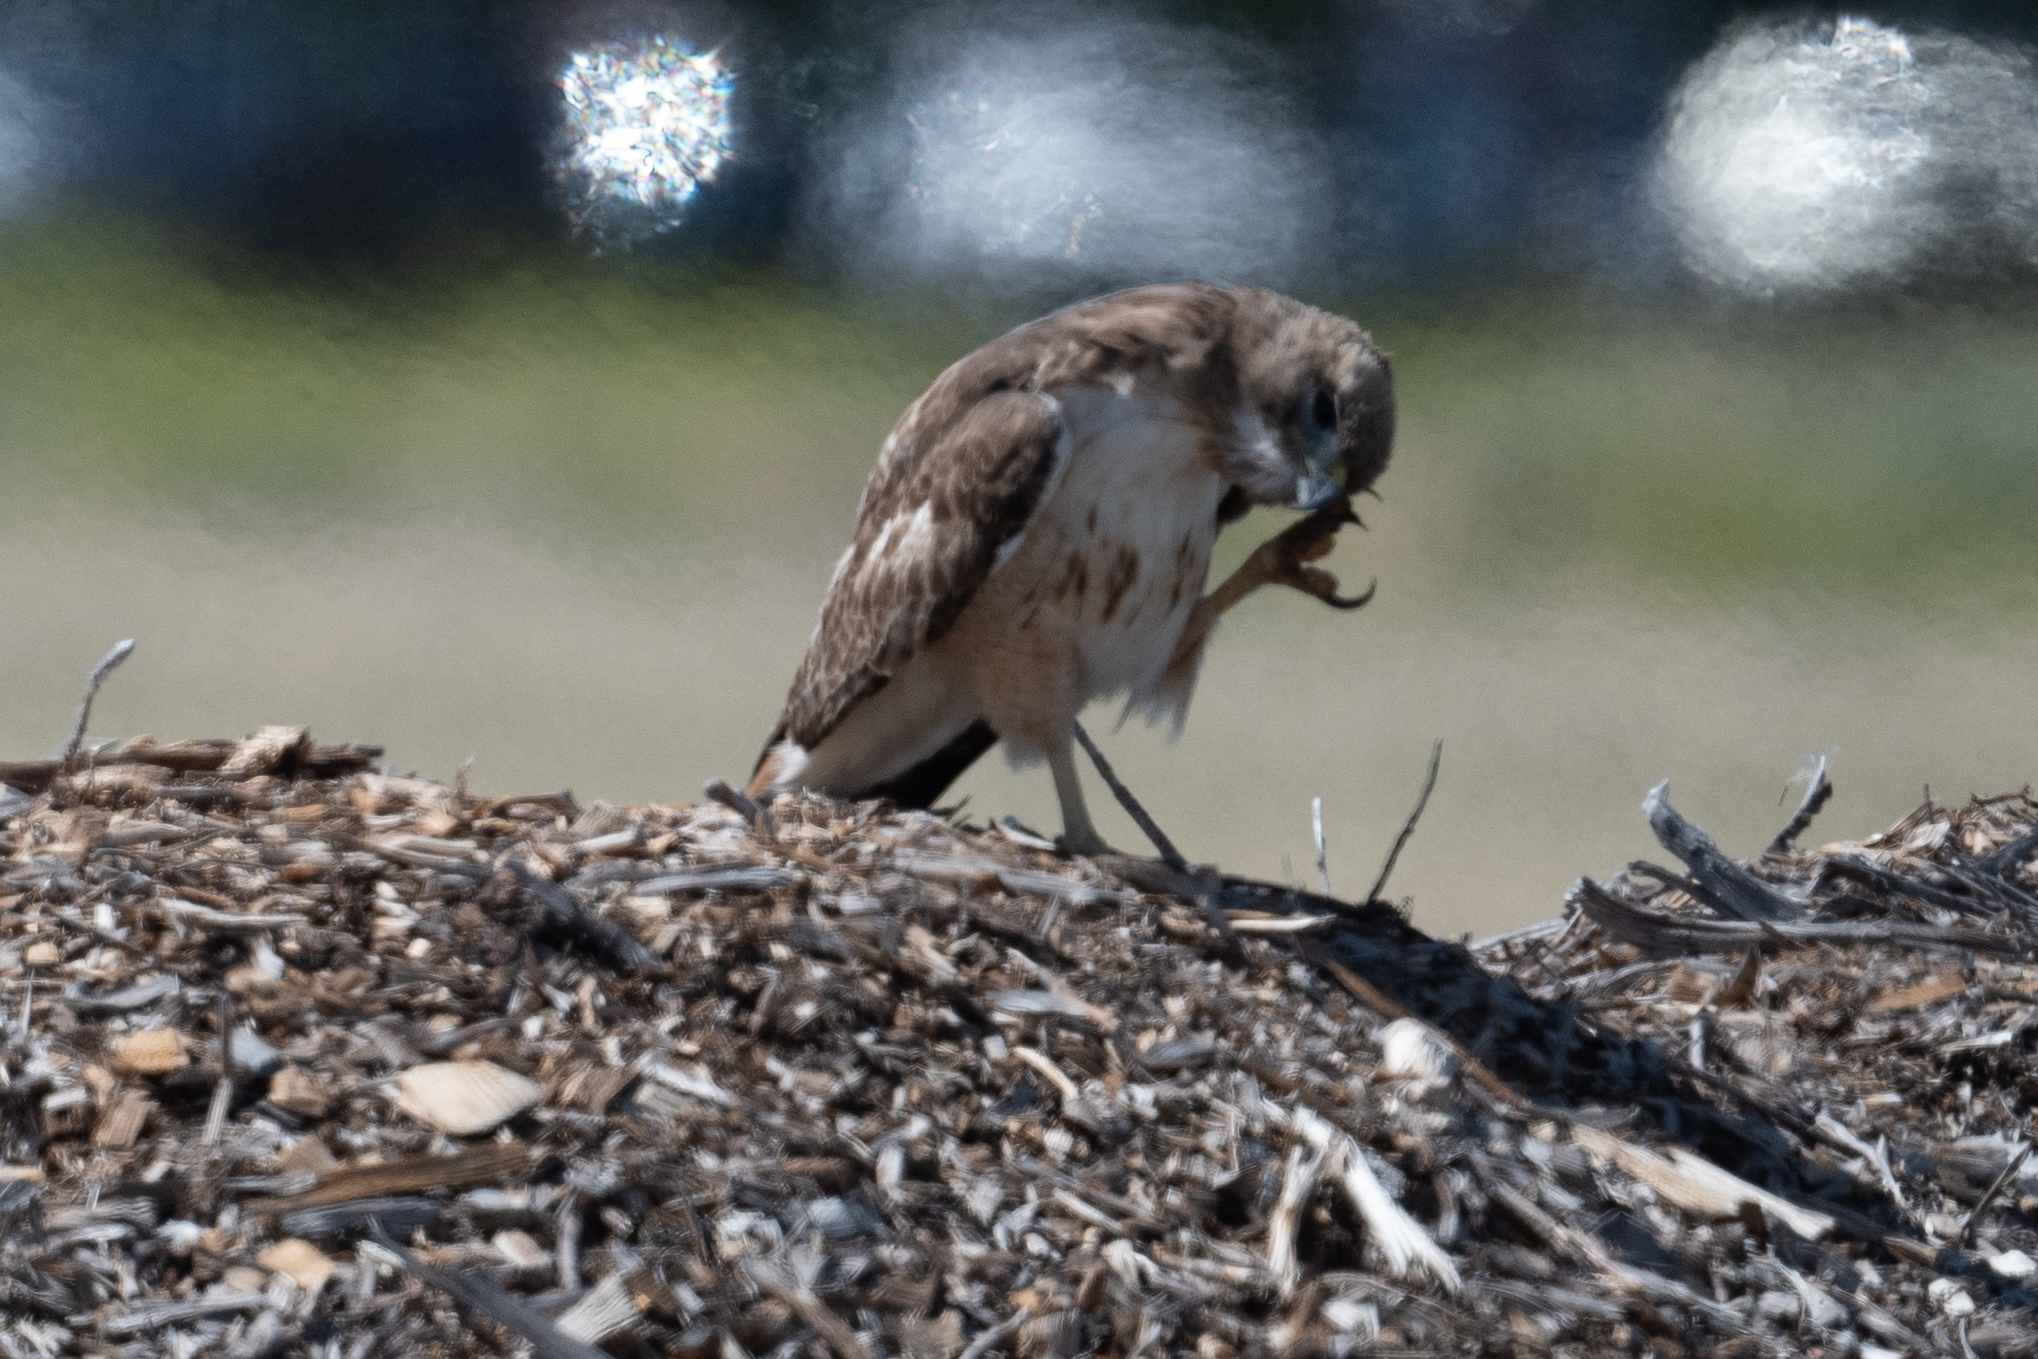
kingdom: Animalia
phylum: Chordata
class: Aves
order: Accipitriformes
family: Accipitridae
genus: Buteo
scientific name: Buteo jamaicensis
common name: Red-tailed hawk
